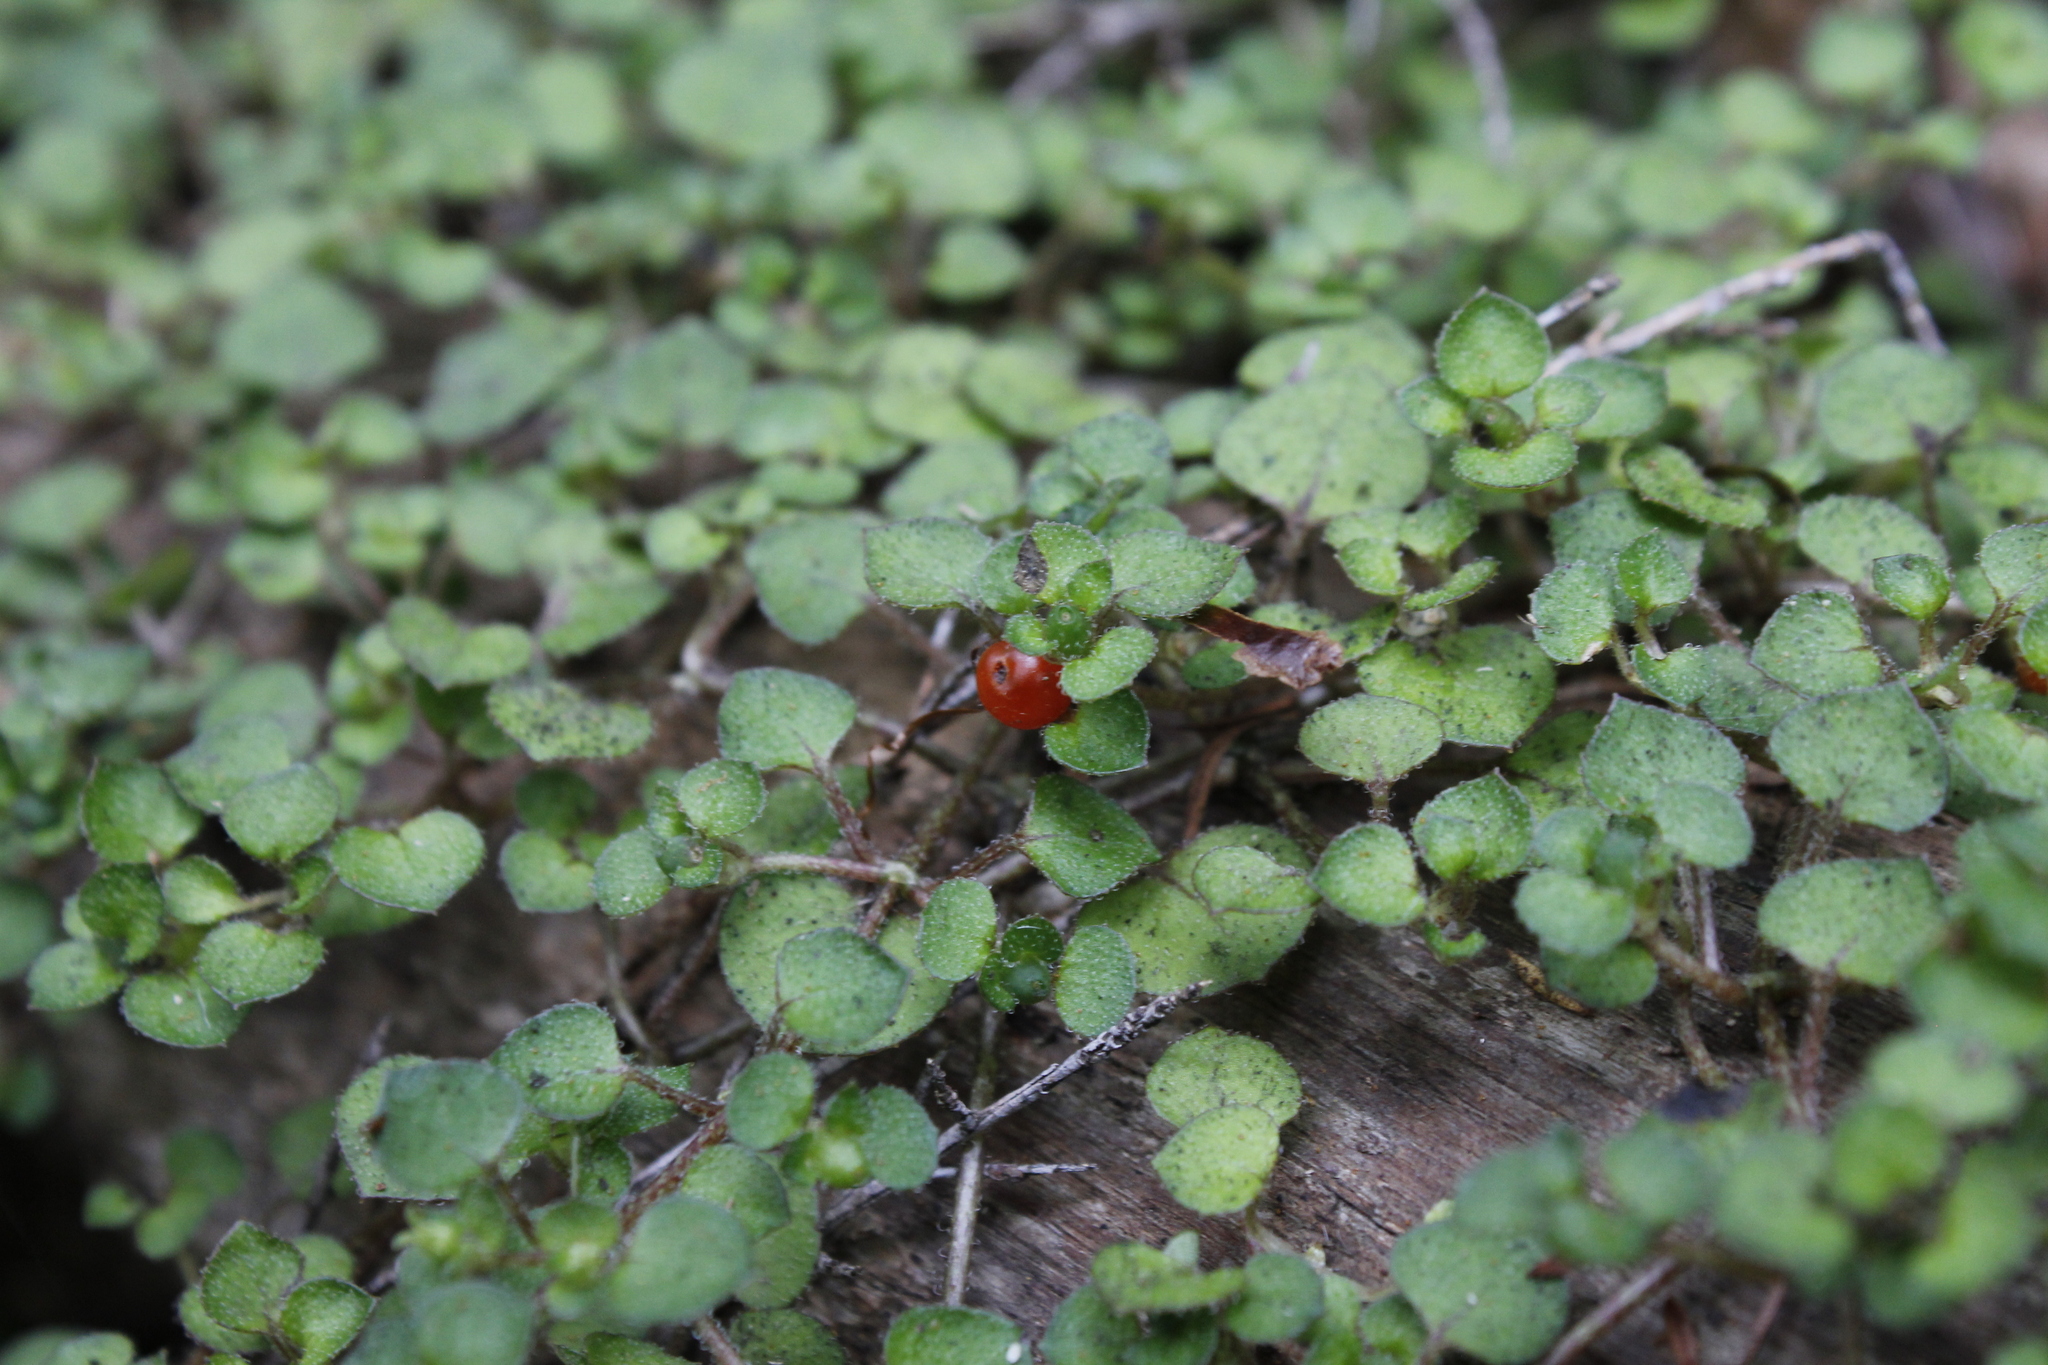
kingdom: Plantae
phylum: Tracheophyta
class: Magnoliopsida
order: Gentianales
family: Rubiaceae
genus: Nertera
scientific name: Nertera dichondrifolia
